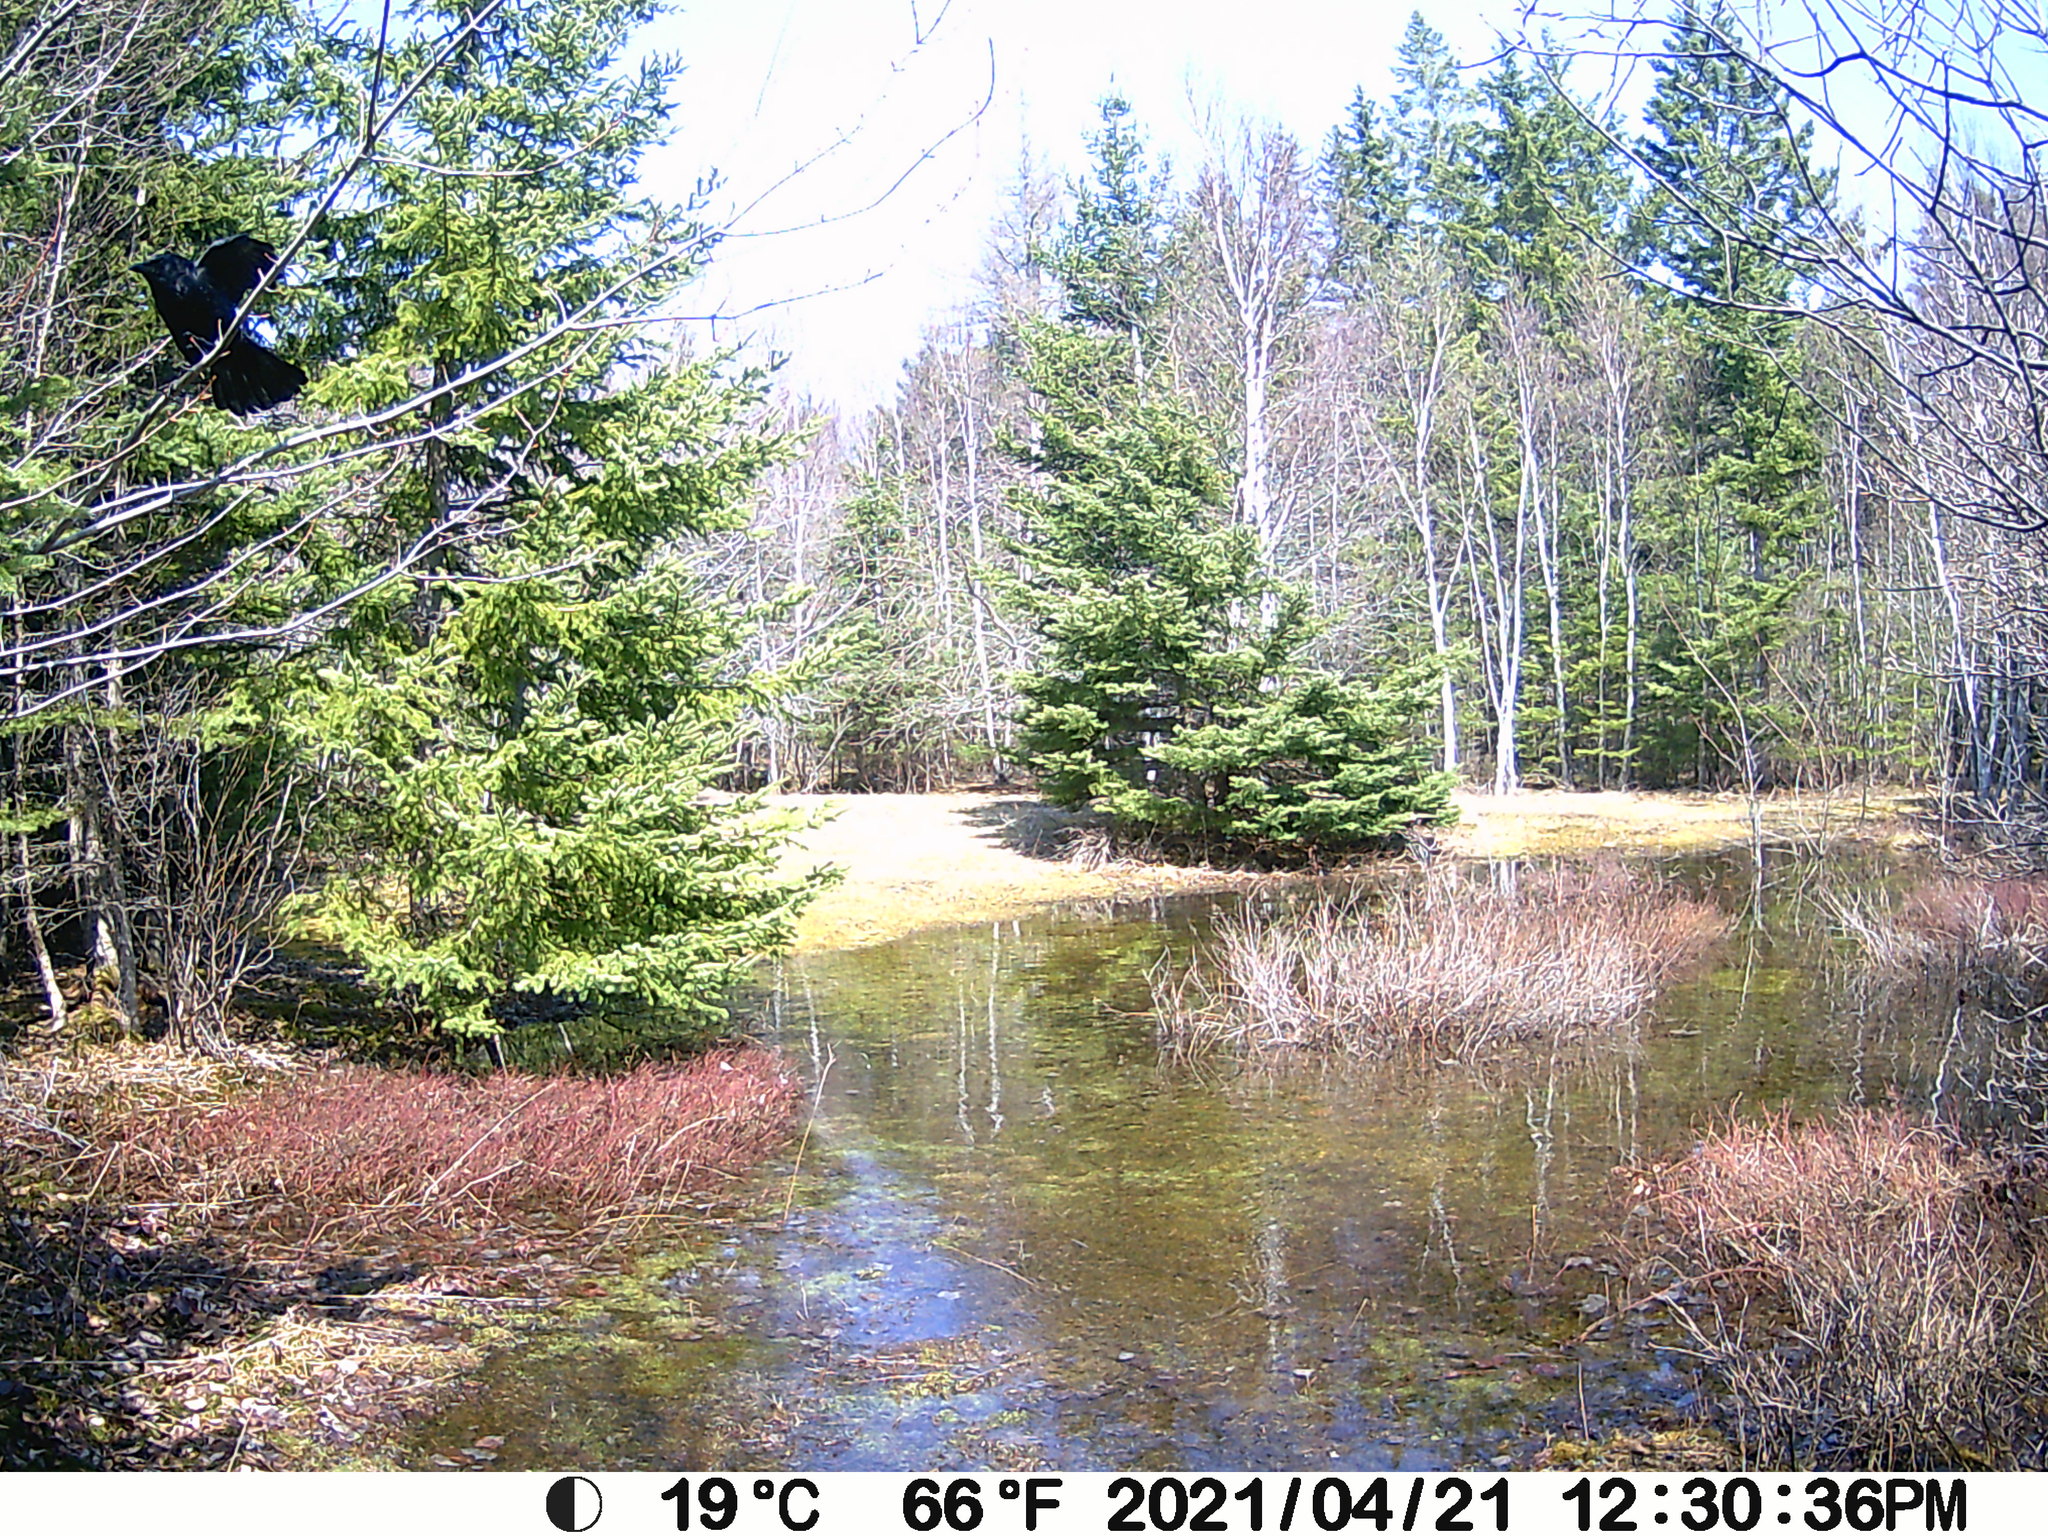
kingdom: Animalia
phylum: Chordata
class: Aves
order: Passeriformes
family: Corvidae
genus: Corvus
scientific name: Corvus brachyrhynchos
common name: American crow
